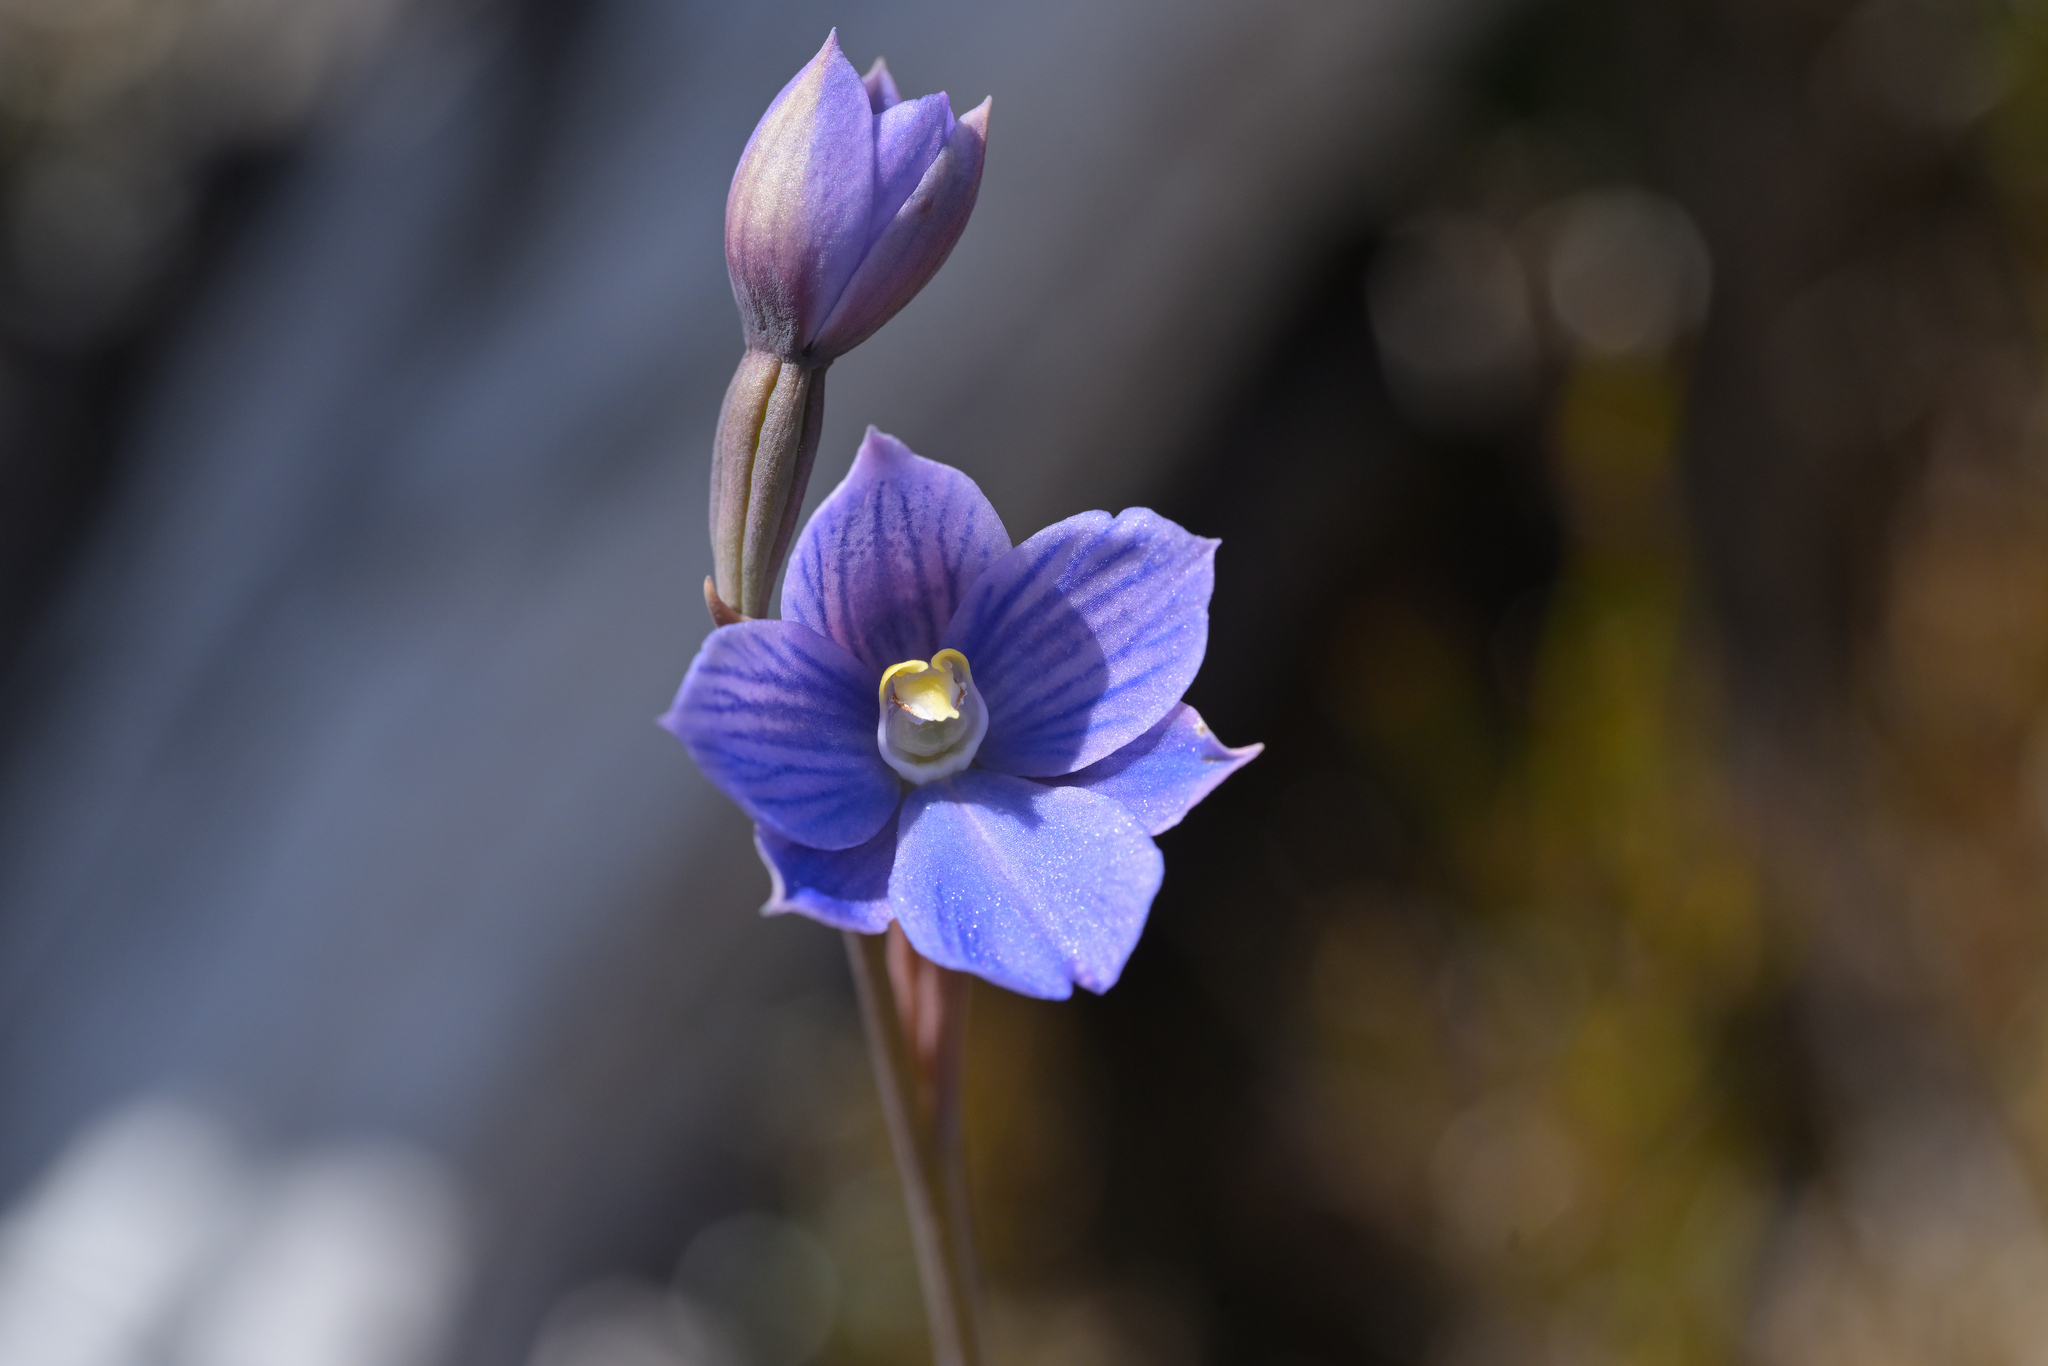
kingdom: Plantae
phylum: Tracheophyta
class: Liliopsida
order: Asparagales
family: Orchidaceae
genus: Thelymitra
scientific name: Thelymitra cyanea
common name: Blue sun-orchid
